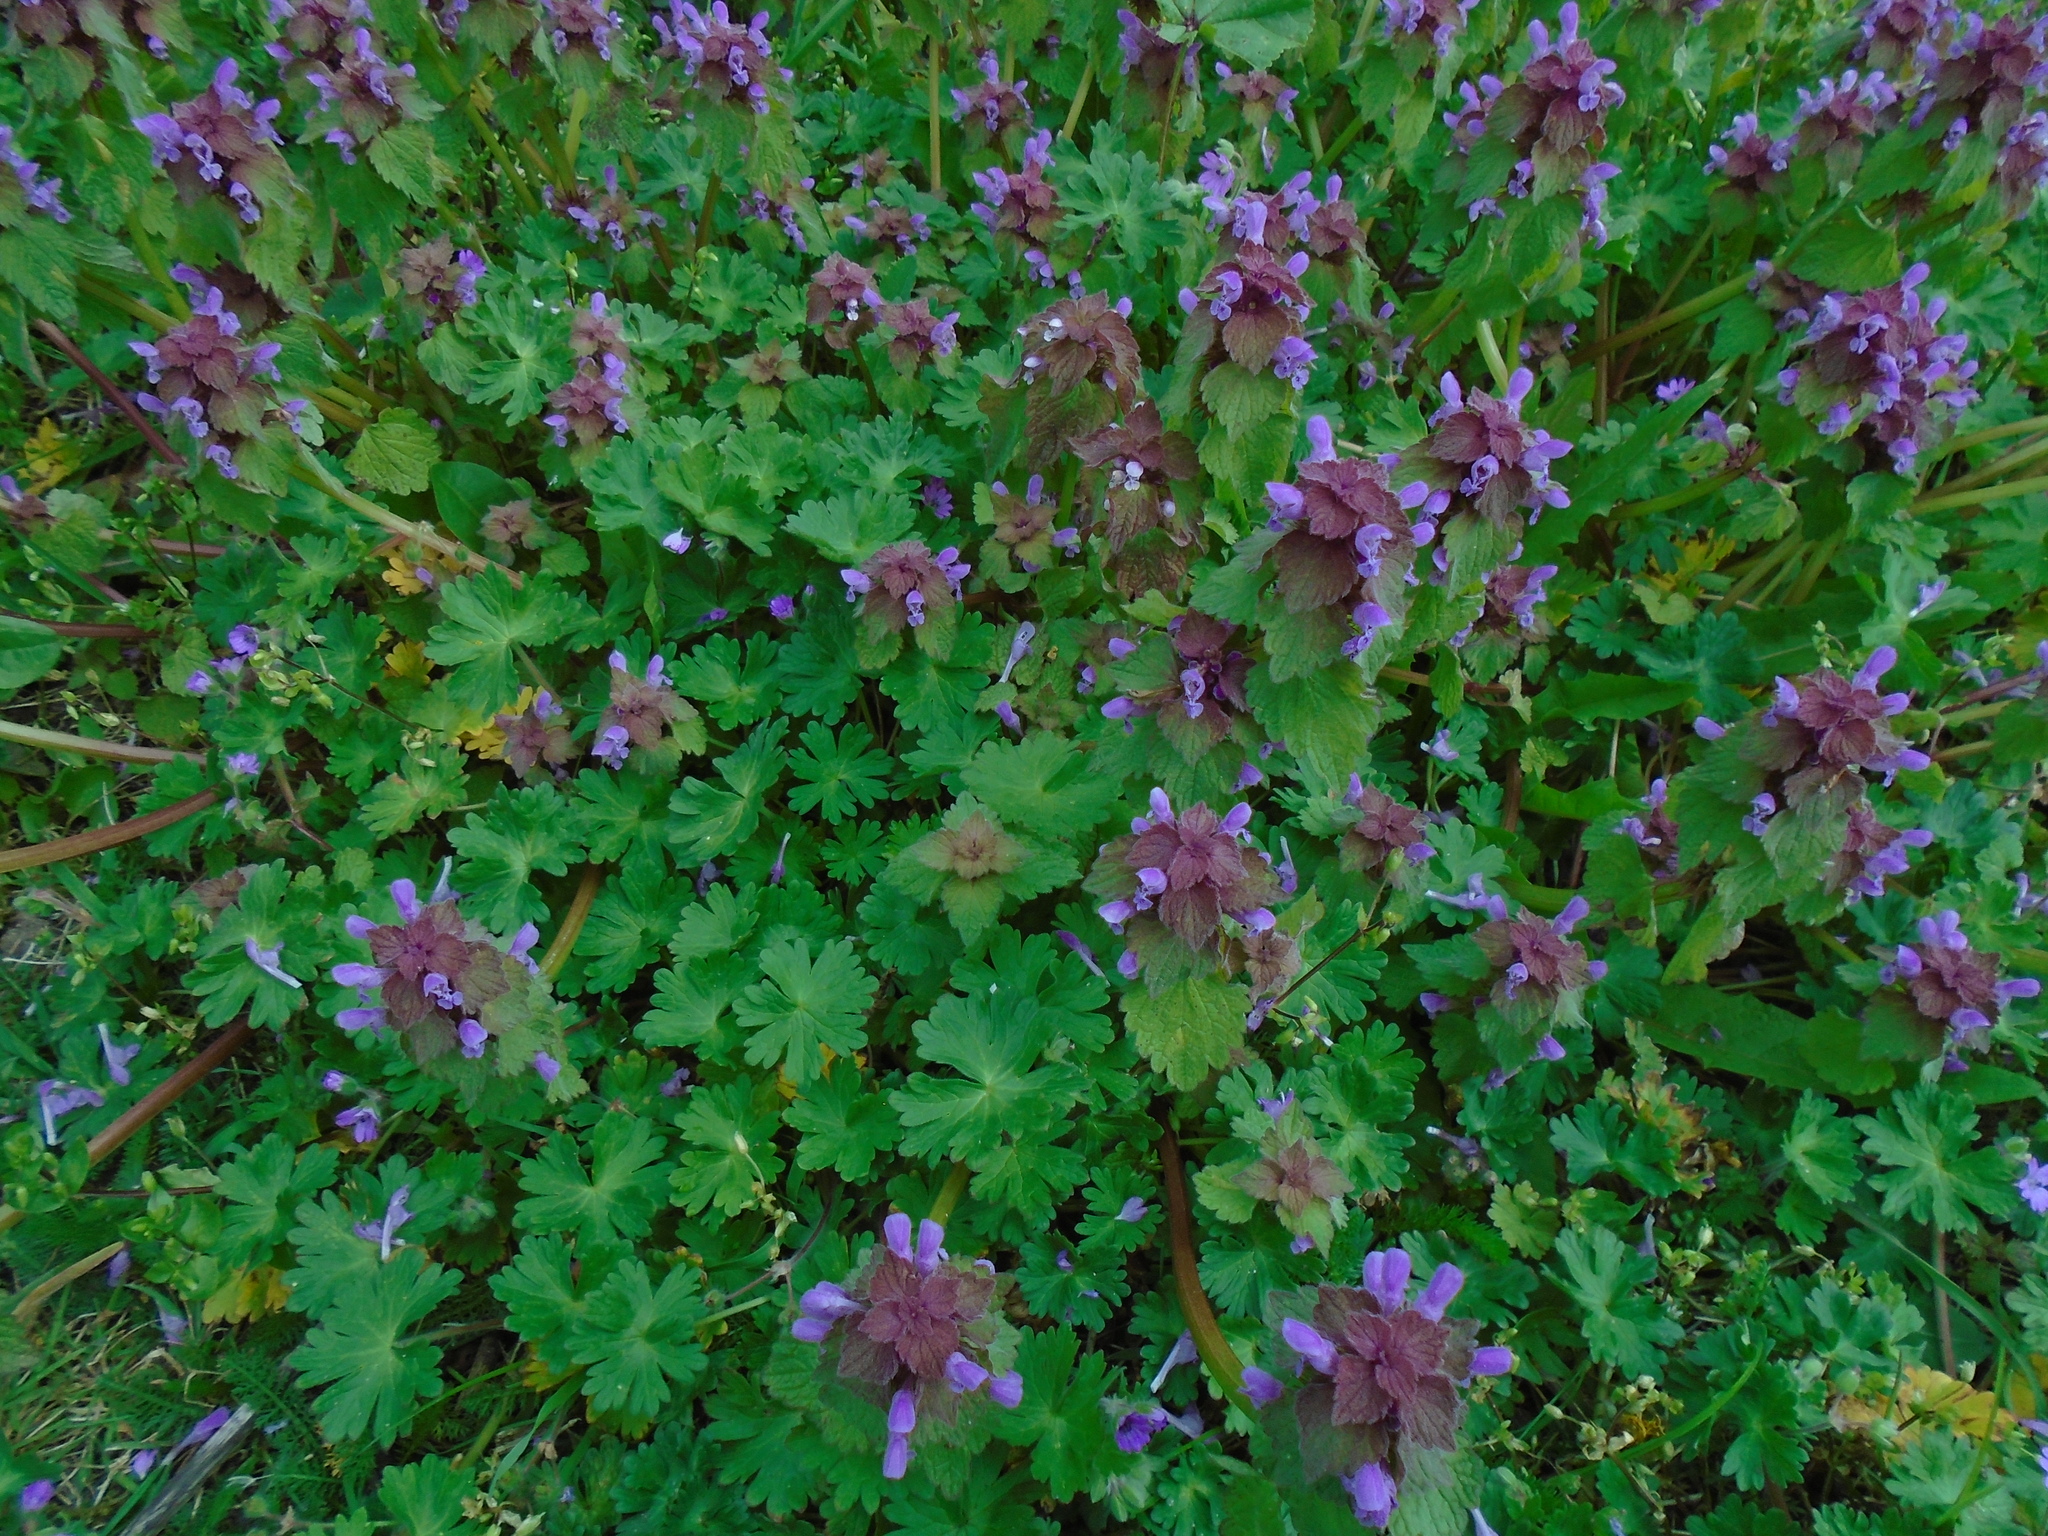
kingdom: Plantae
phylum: Tracheophyta
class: Magnoliopsida
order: Lamiales
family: Lamiaceae
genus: Lamium
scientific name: Lamium purpureum
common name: Red dead-nettle
